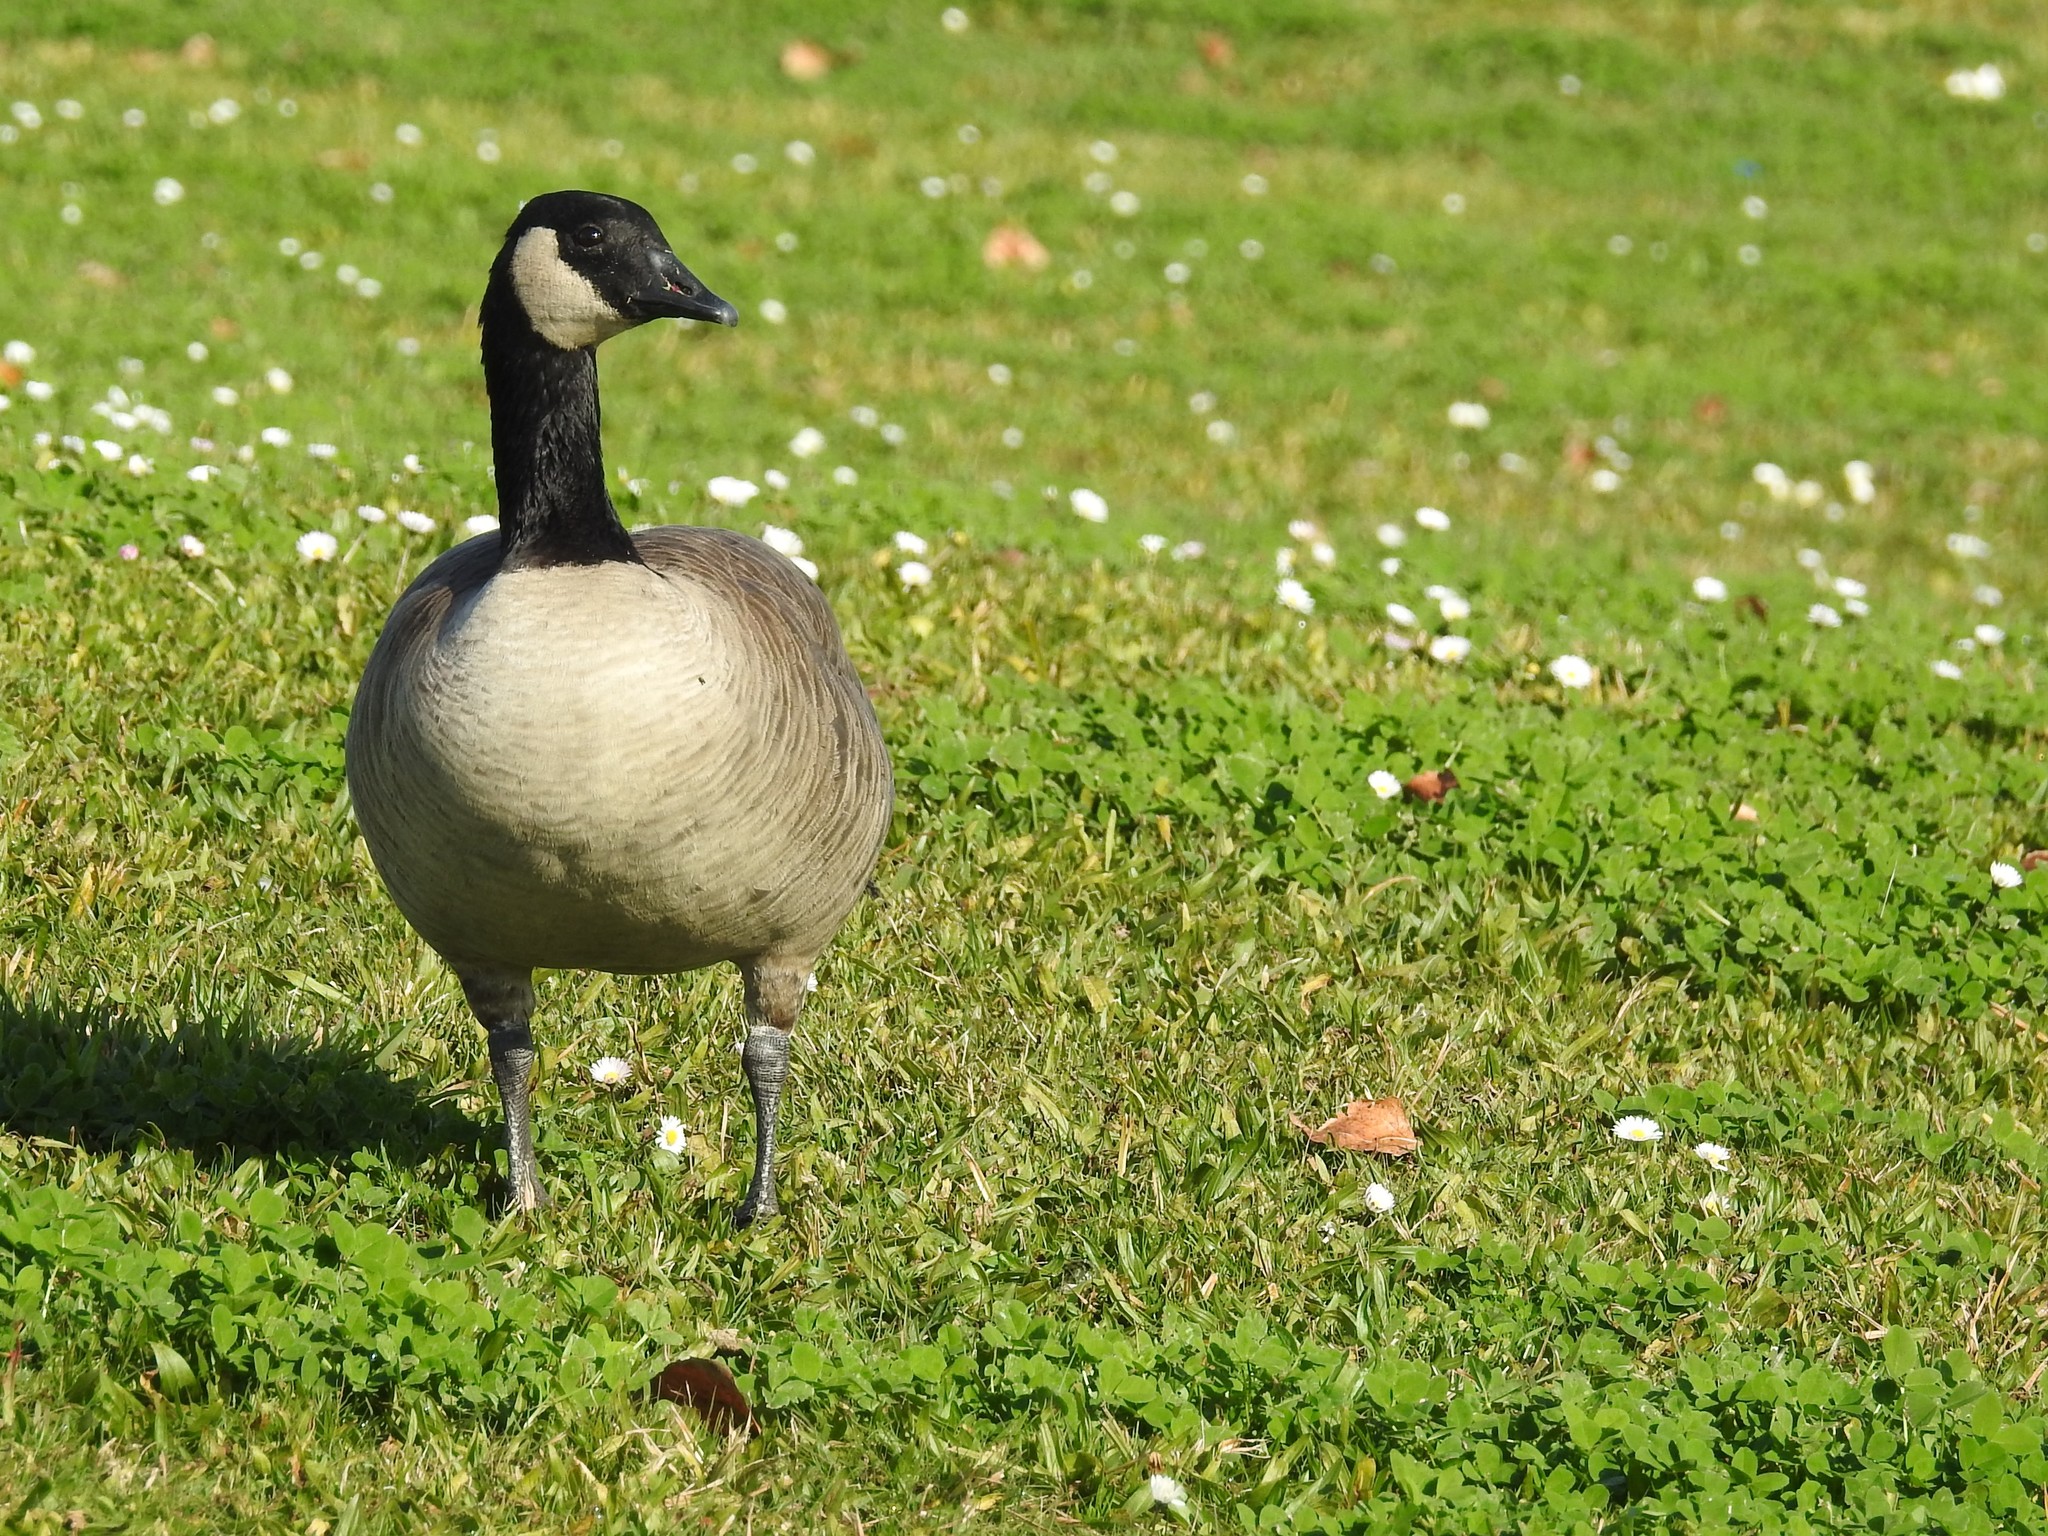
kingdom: Animalia
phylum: Chordata
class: Aves
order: Anseriformes
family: Anatidae
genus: Branta
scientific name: Branta canadensis
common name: Canada goose
